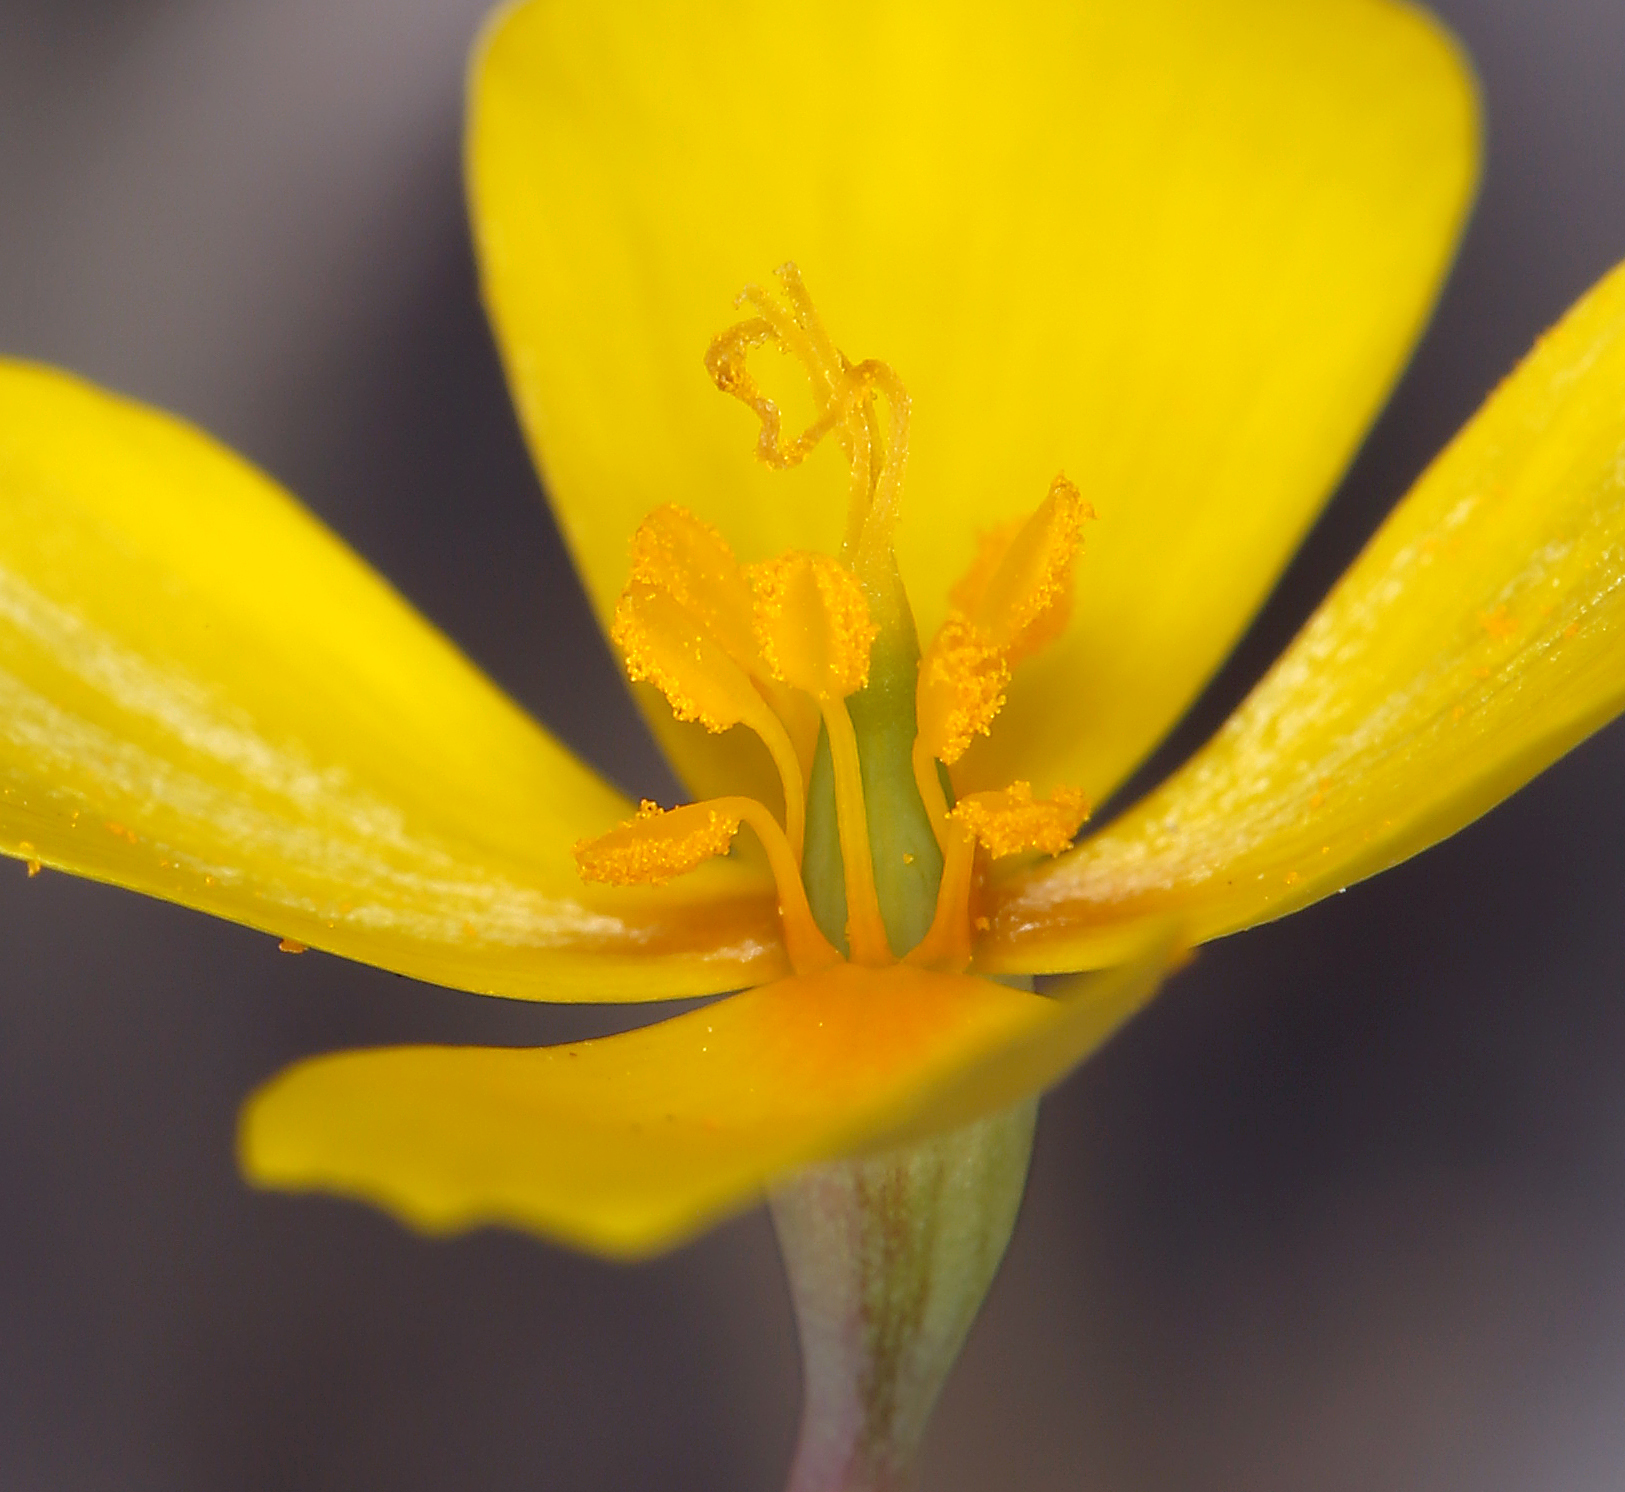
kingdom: Plantae
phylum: Tracheophyta
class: Magnoliopsida
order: Ranunculales
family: Papaveraceae
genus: Eschscholzia
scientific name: Eschscholzia minutiflora
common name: Small-flower california-poppy
